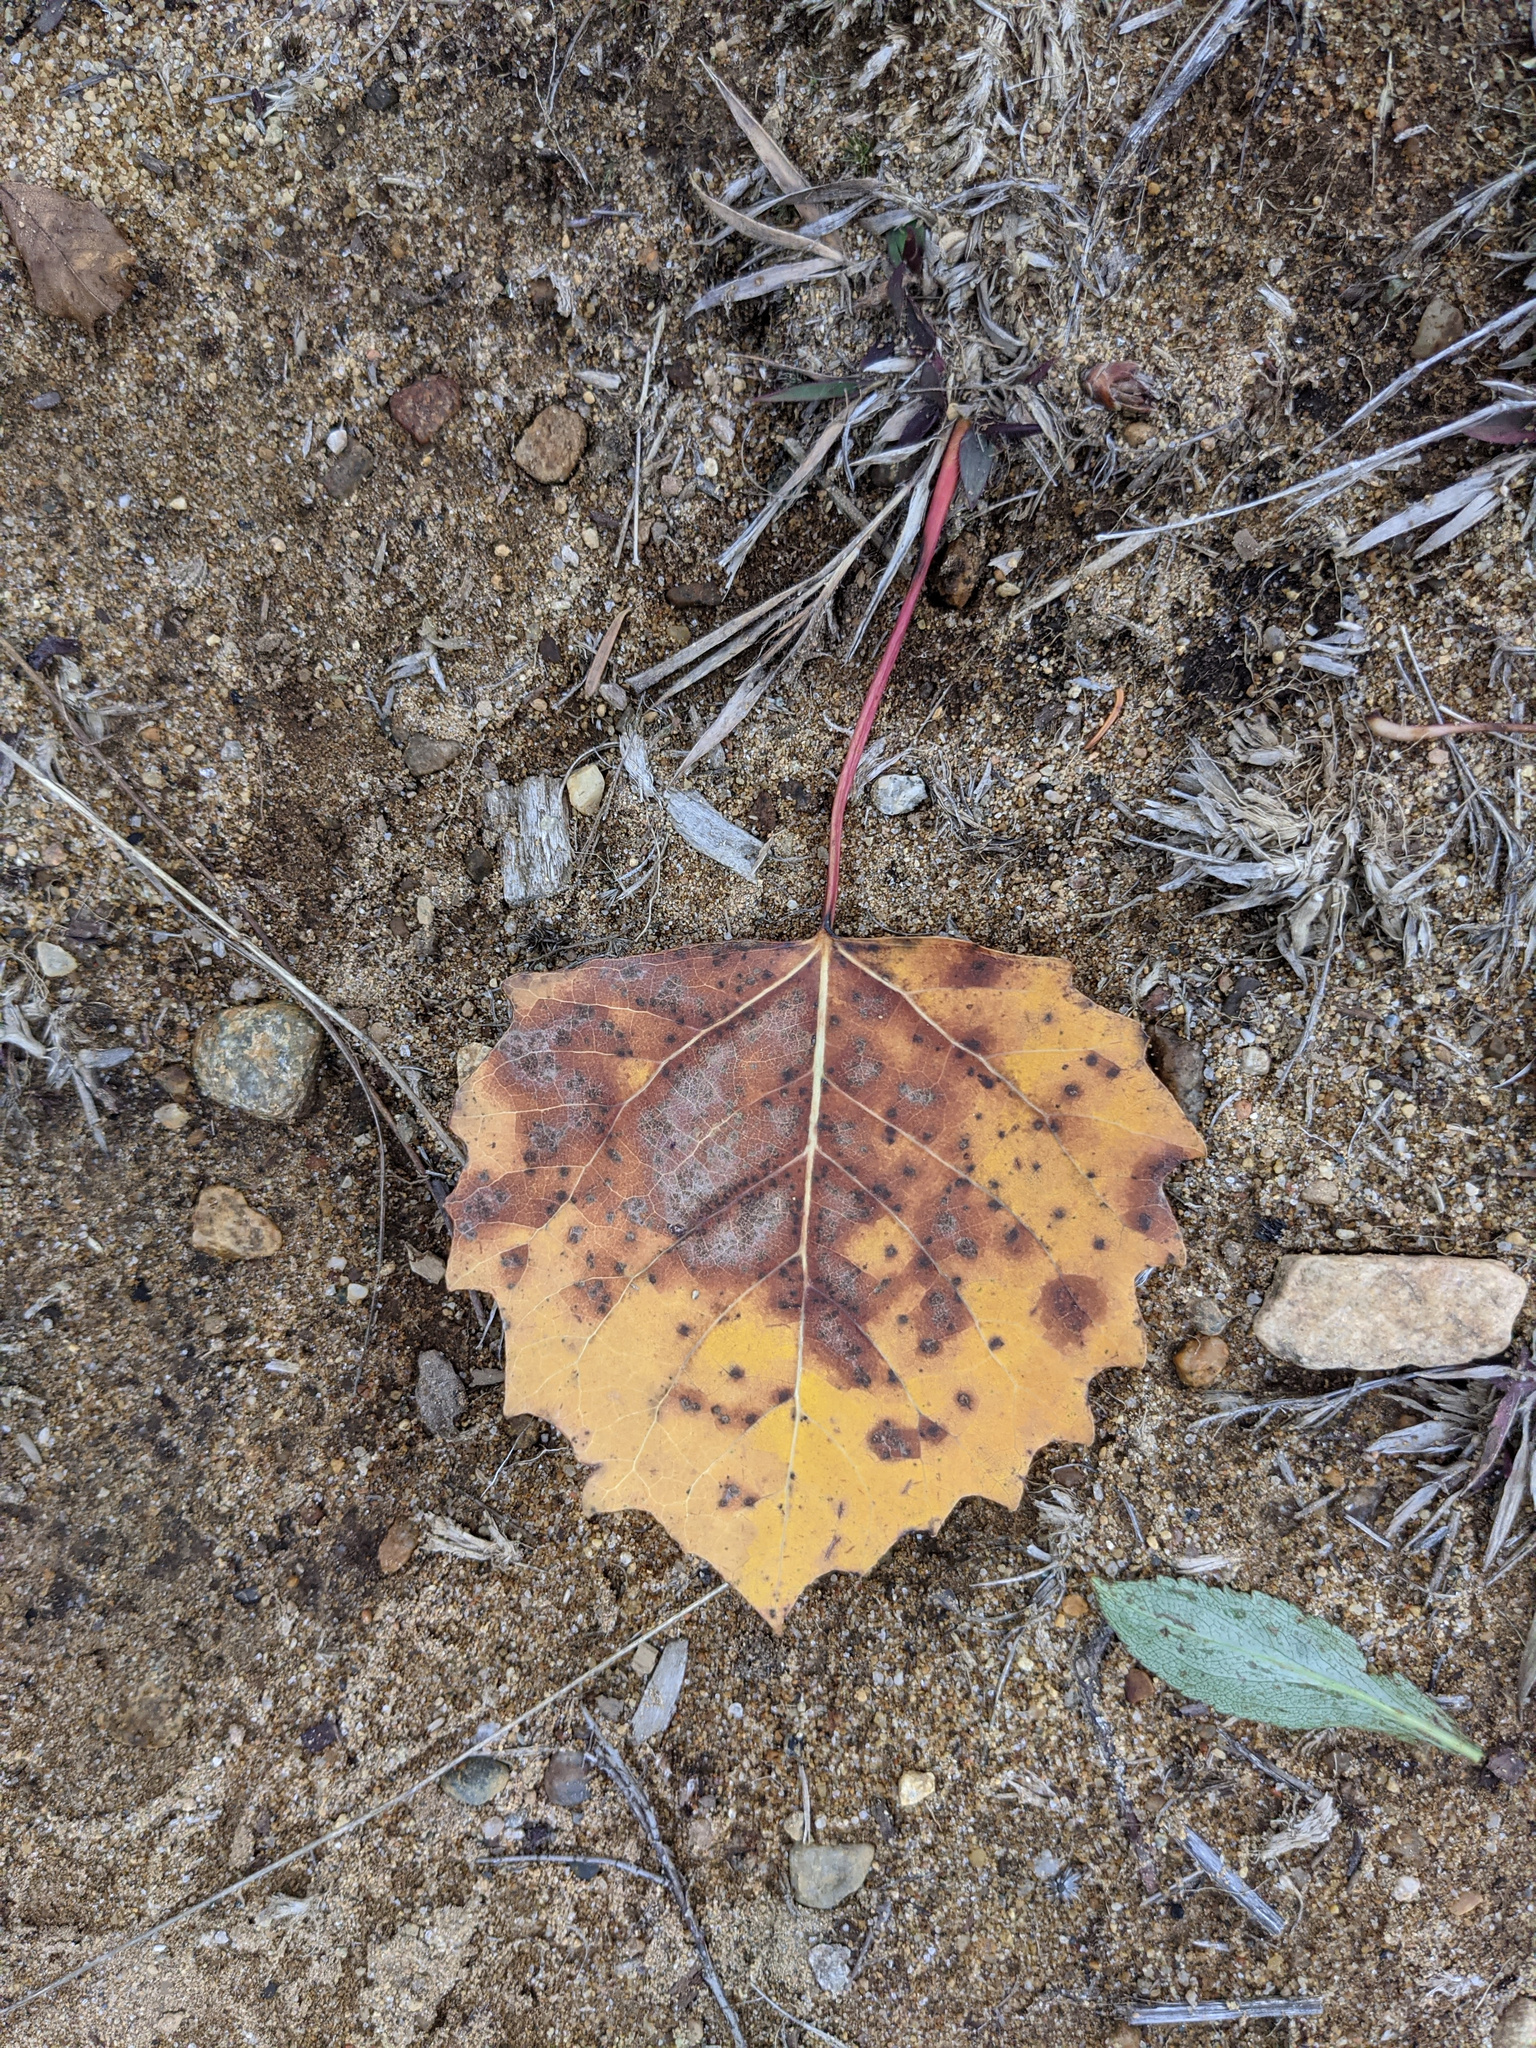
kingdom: Plantae
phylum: Tracheophyta
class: Magnoliopsida
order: Malpighiales
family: Salicaceae
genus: Populus
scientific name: Populus grandidentata
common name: Bigtooth aspen
